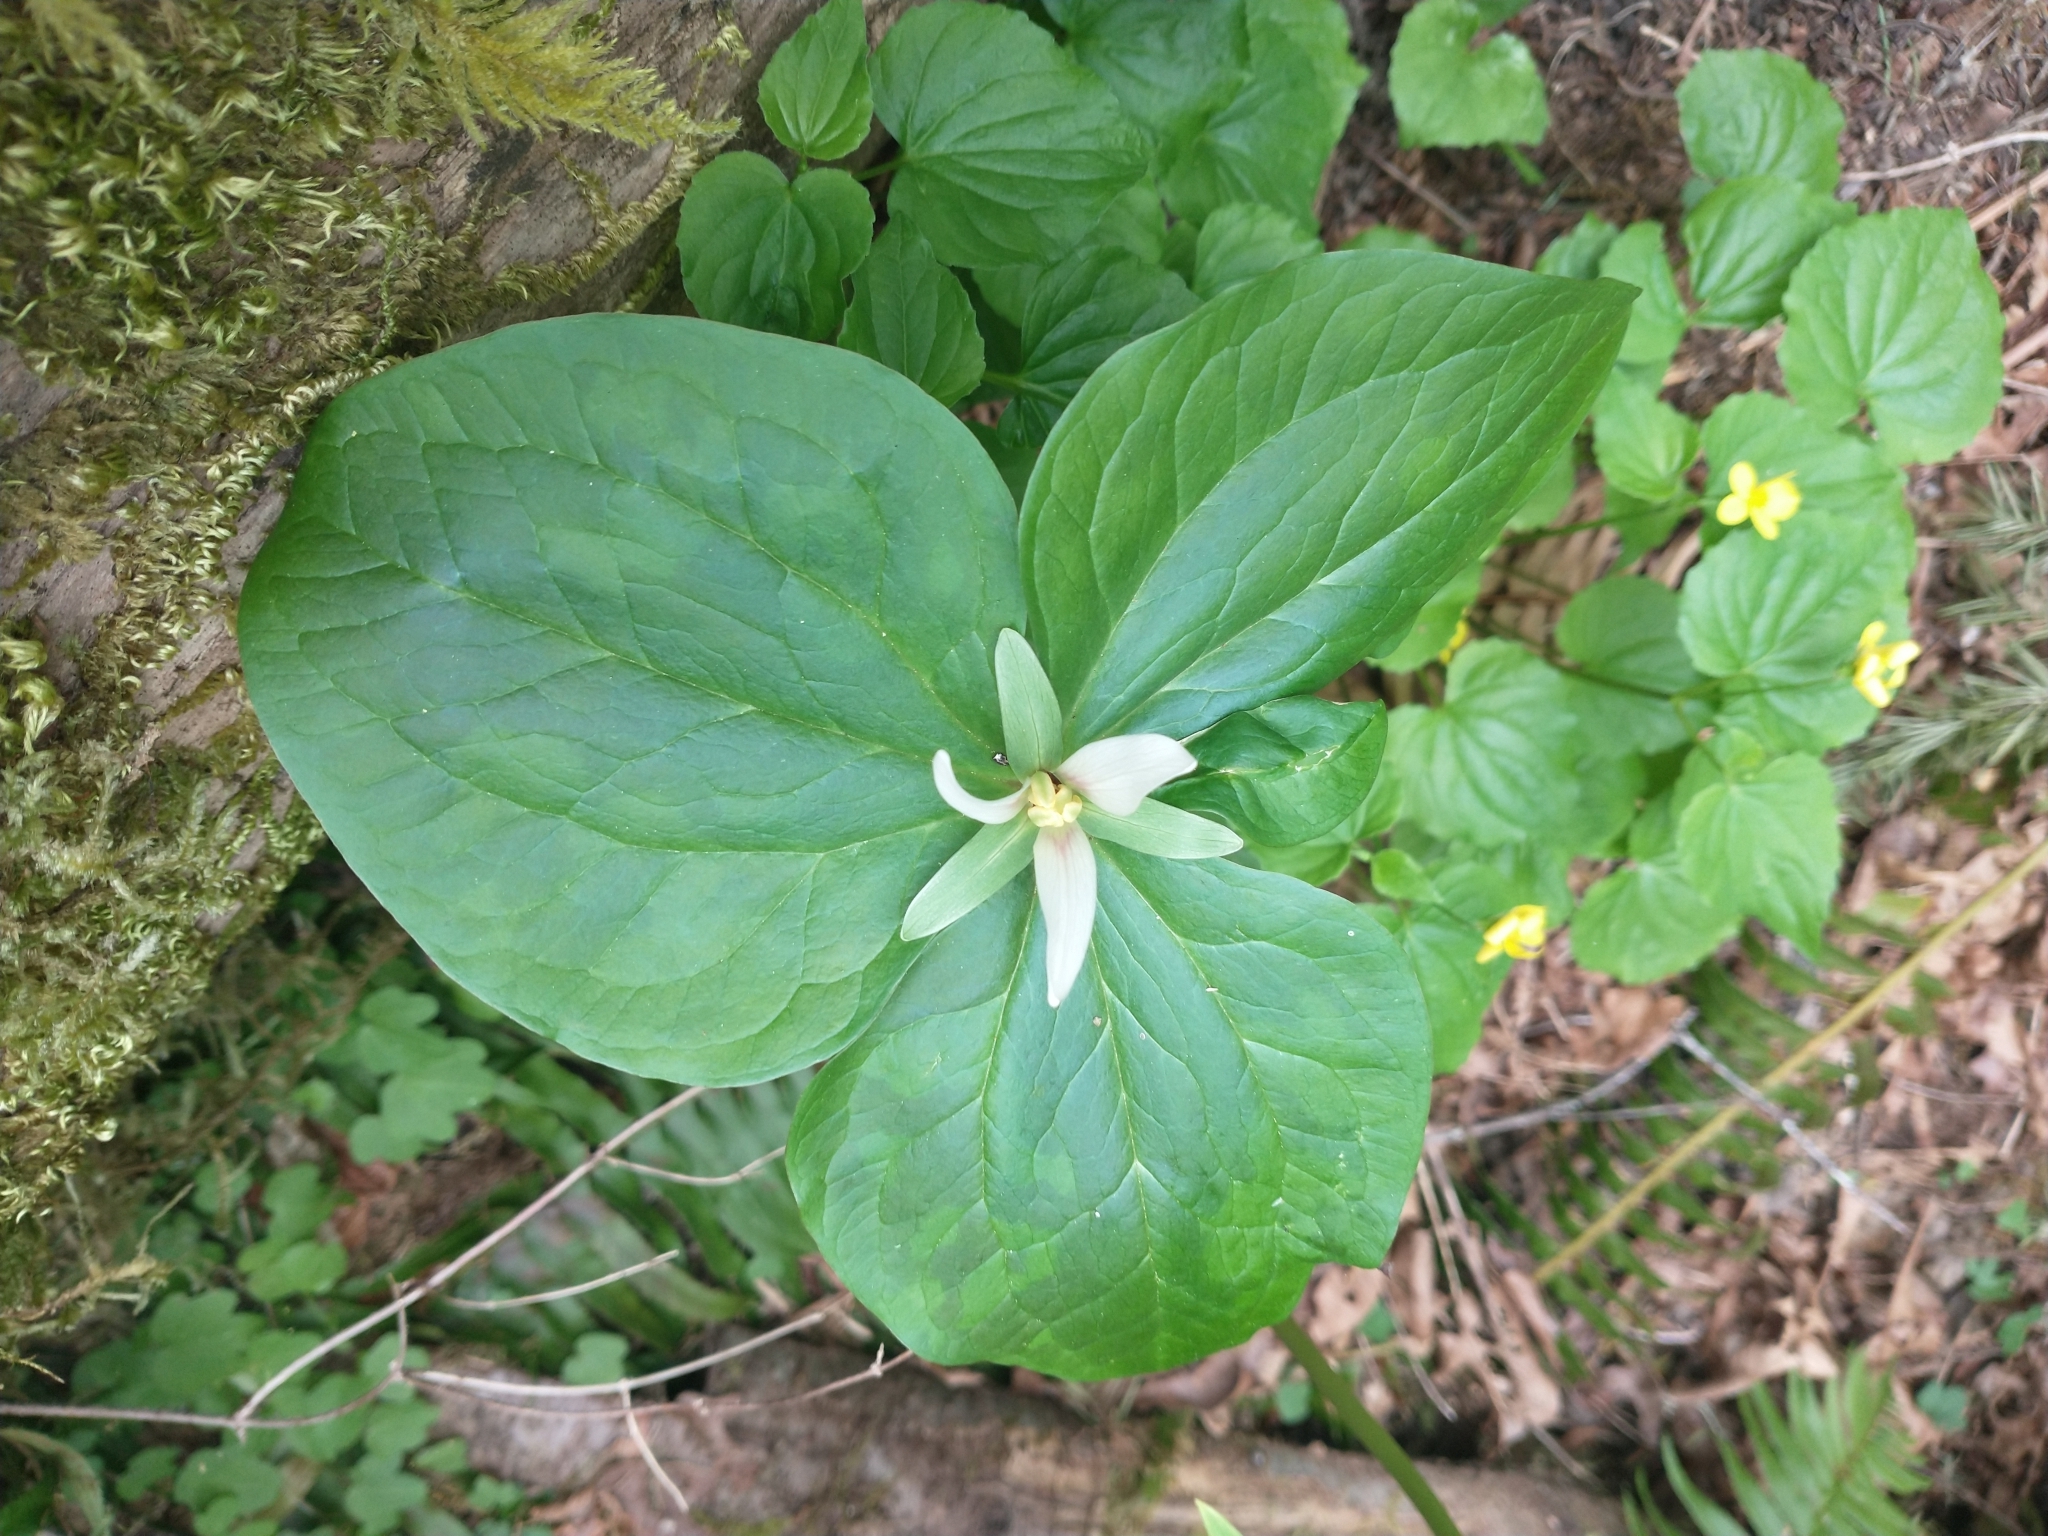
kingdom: Plantae
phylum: Tracheophyta
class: Liliopsida
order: Liliales
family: Melanthiaceae
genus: Trillium
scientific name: Trillium albidum
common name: Freeman's trillium
